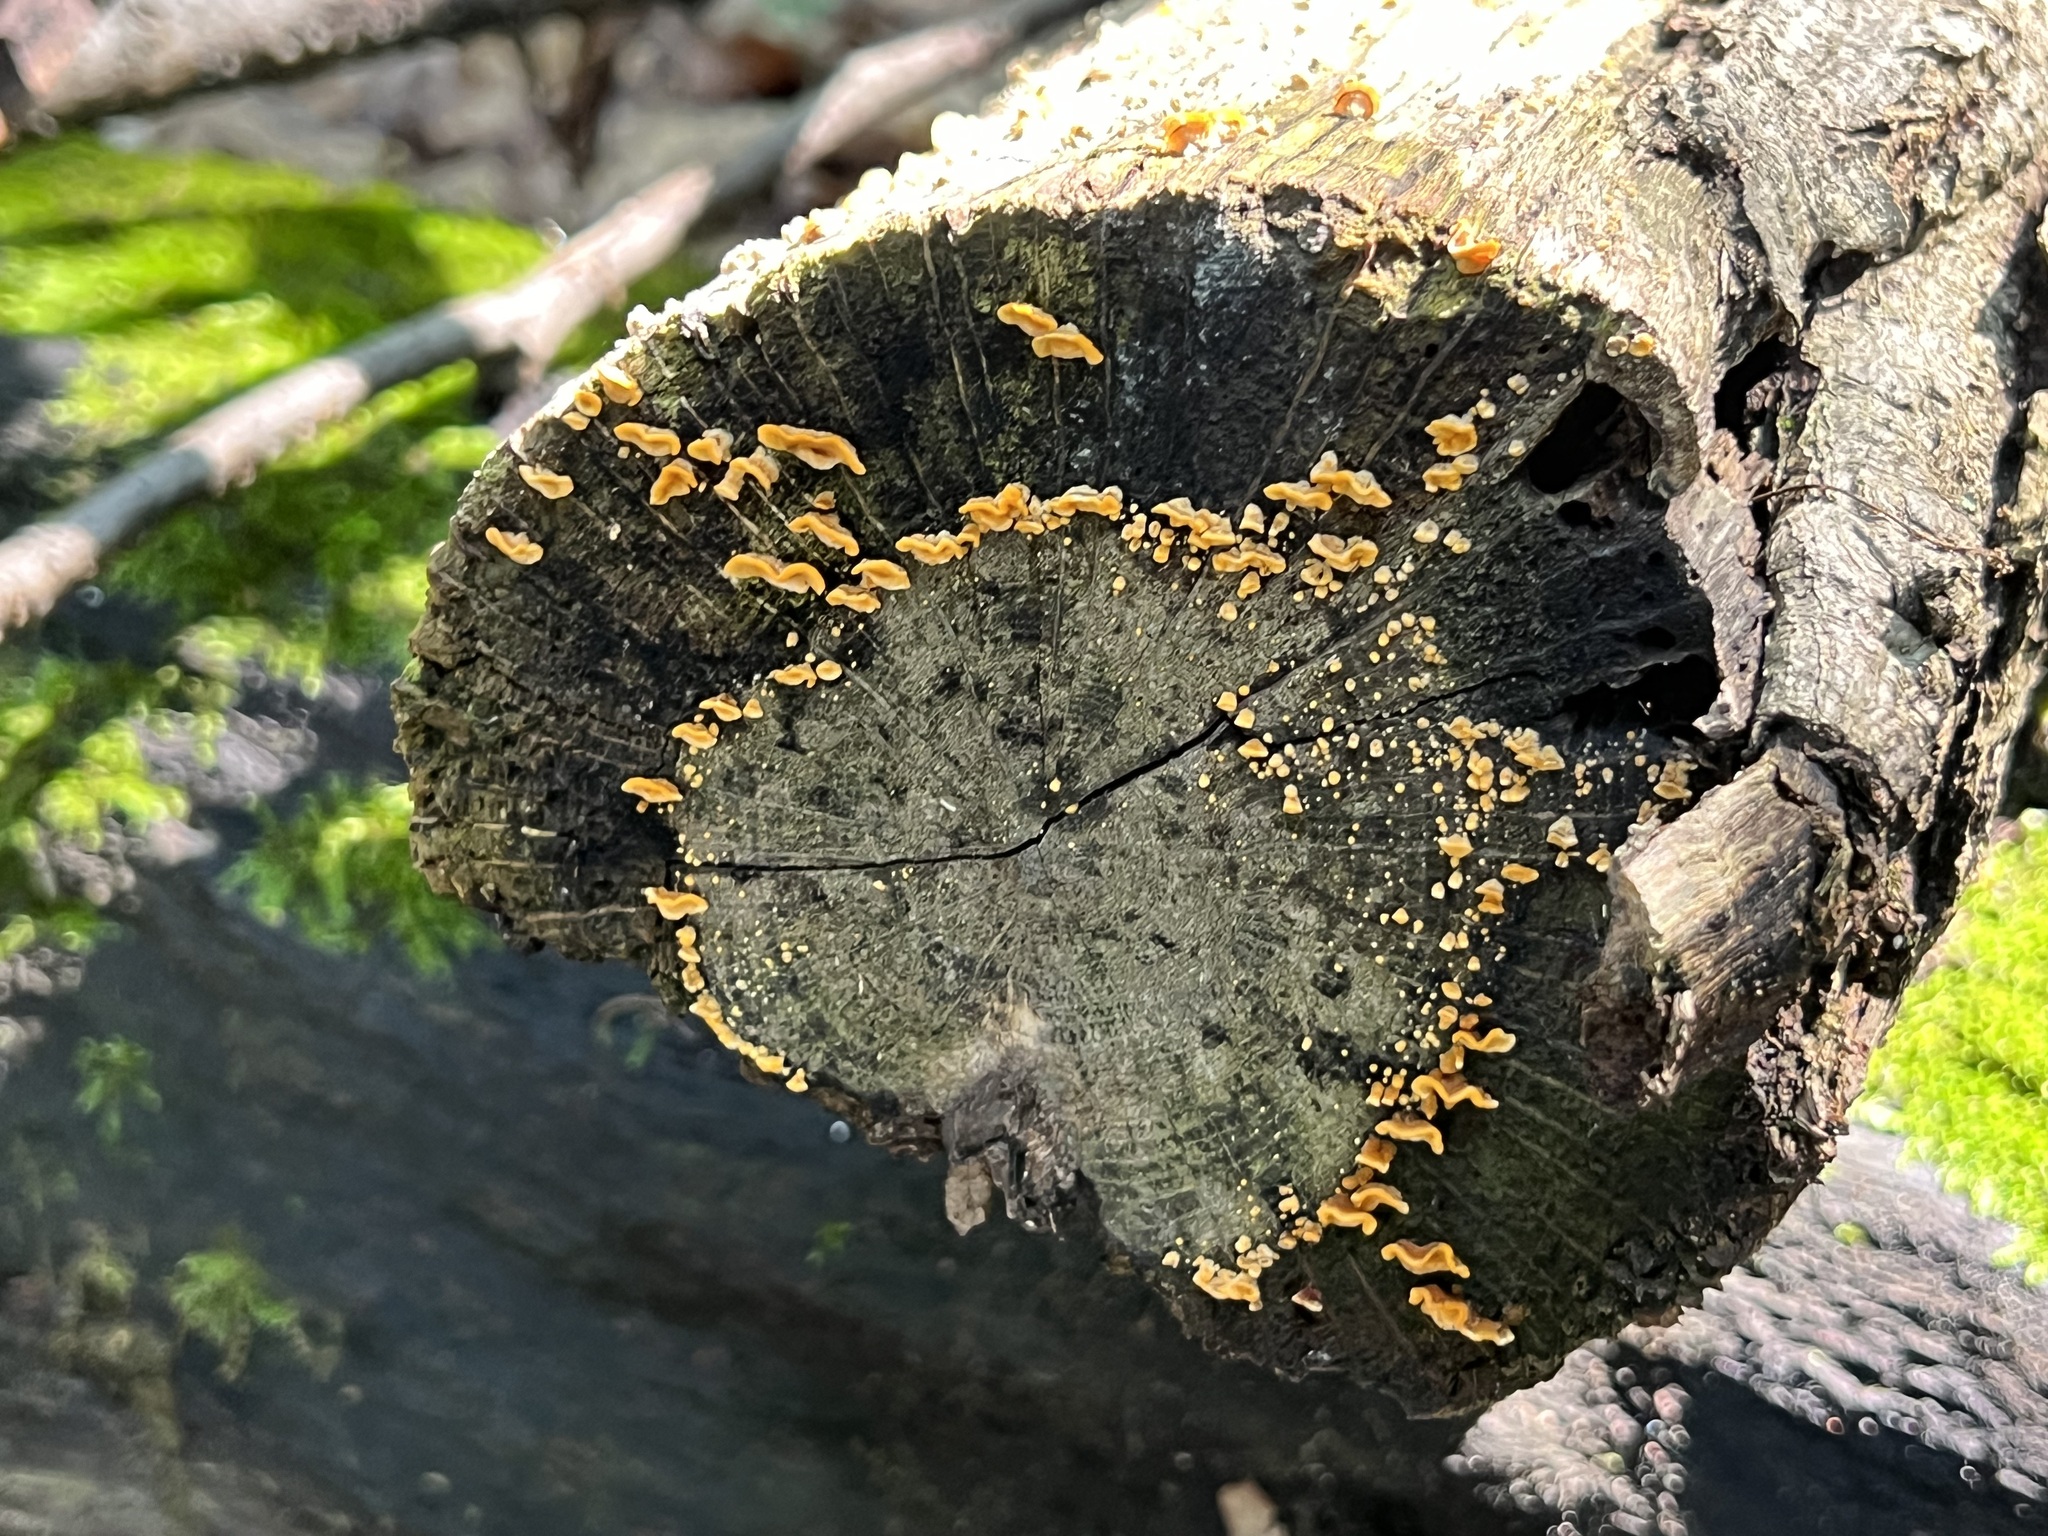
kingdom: Fungi
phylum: Basidiomycota
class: Agaricomycetes
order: Russulales
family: Stereaceae
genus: Stereum
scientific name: Stereum complicatum
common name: Crowded parchment
